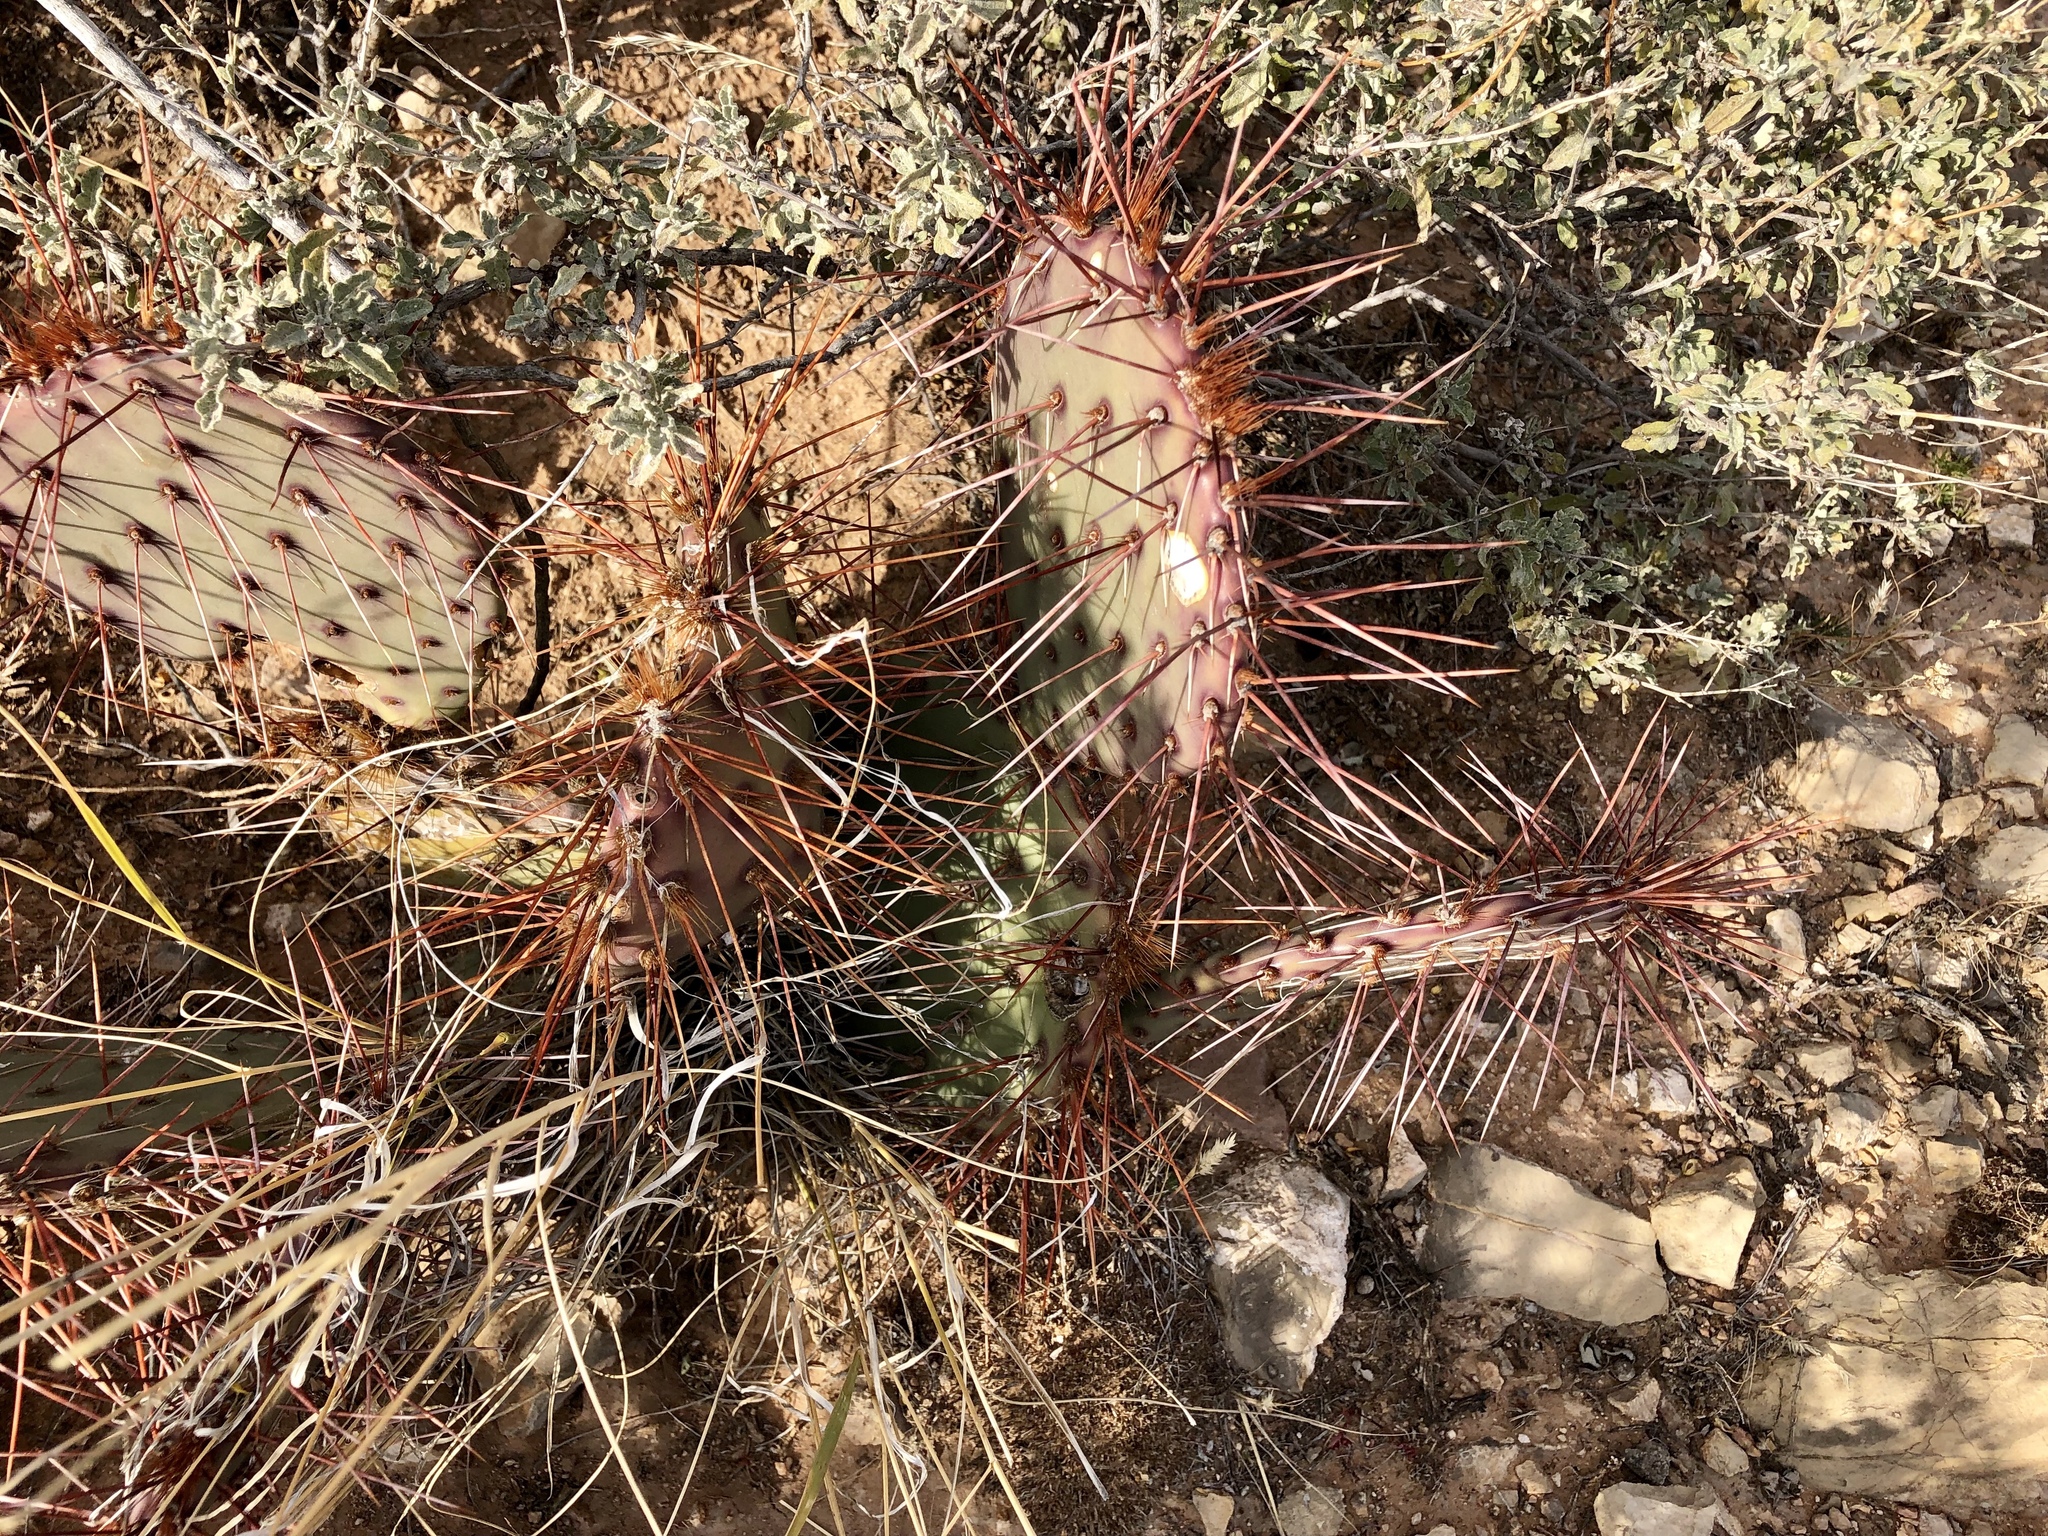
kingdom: Plantae
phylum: Tracheophyta
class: Magnoliopsida
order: Caryophyllales
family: Cactaceae
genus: Opuntia
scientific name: Opuntia phaeacantha
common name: New mexico prickly-pear
